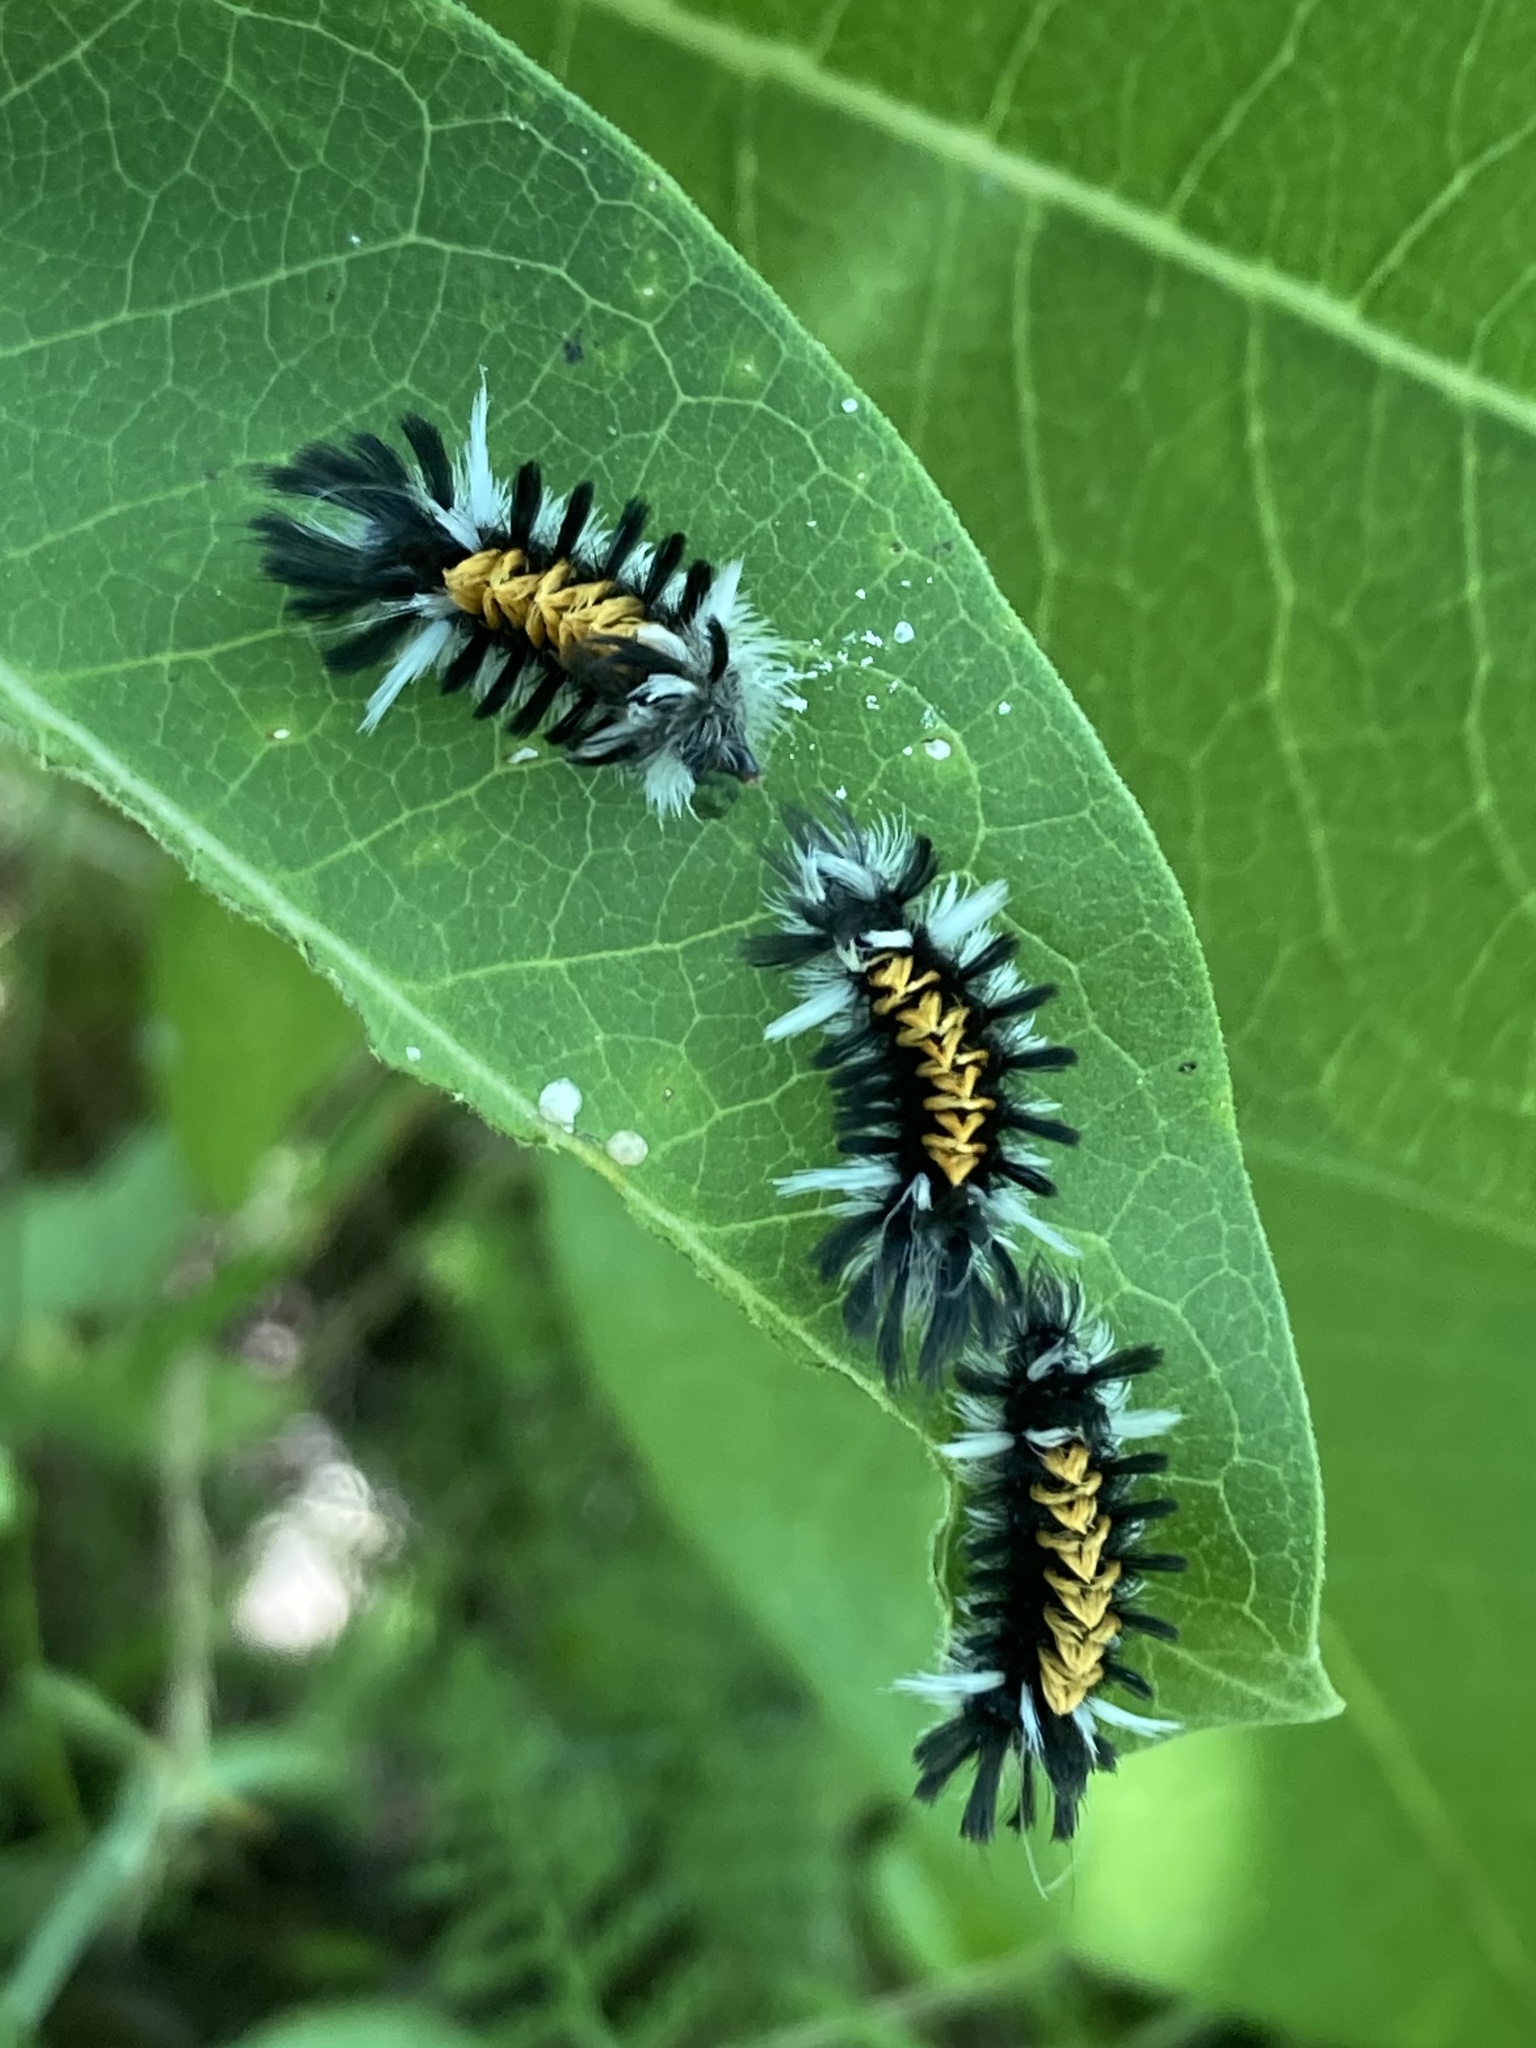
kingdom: Animalia
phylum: Arthropoda
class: Insecta
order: Lepidoptera
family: Erebidae
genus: Euchaetes
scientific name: Euchaetes egle
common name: Milkweed tussock moth
